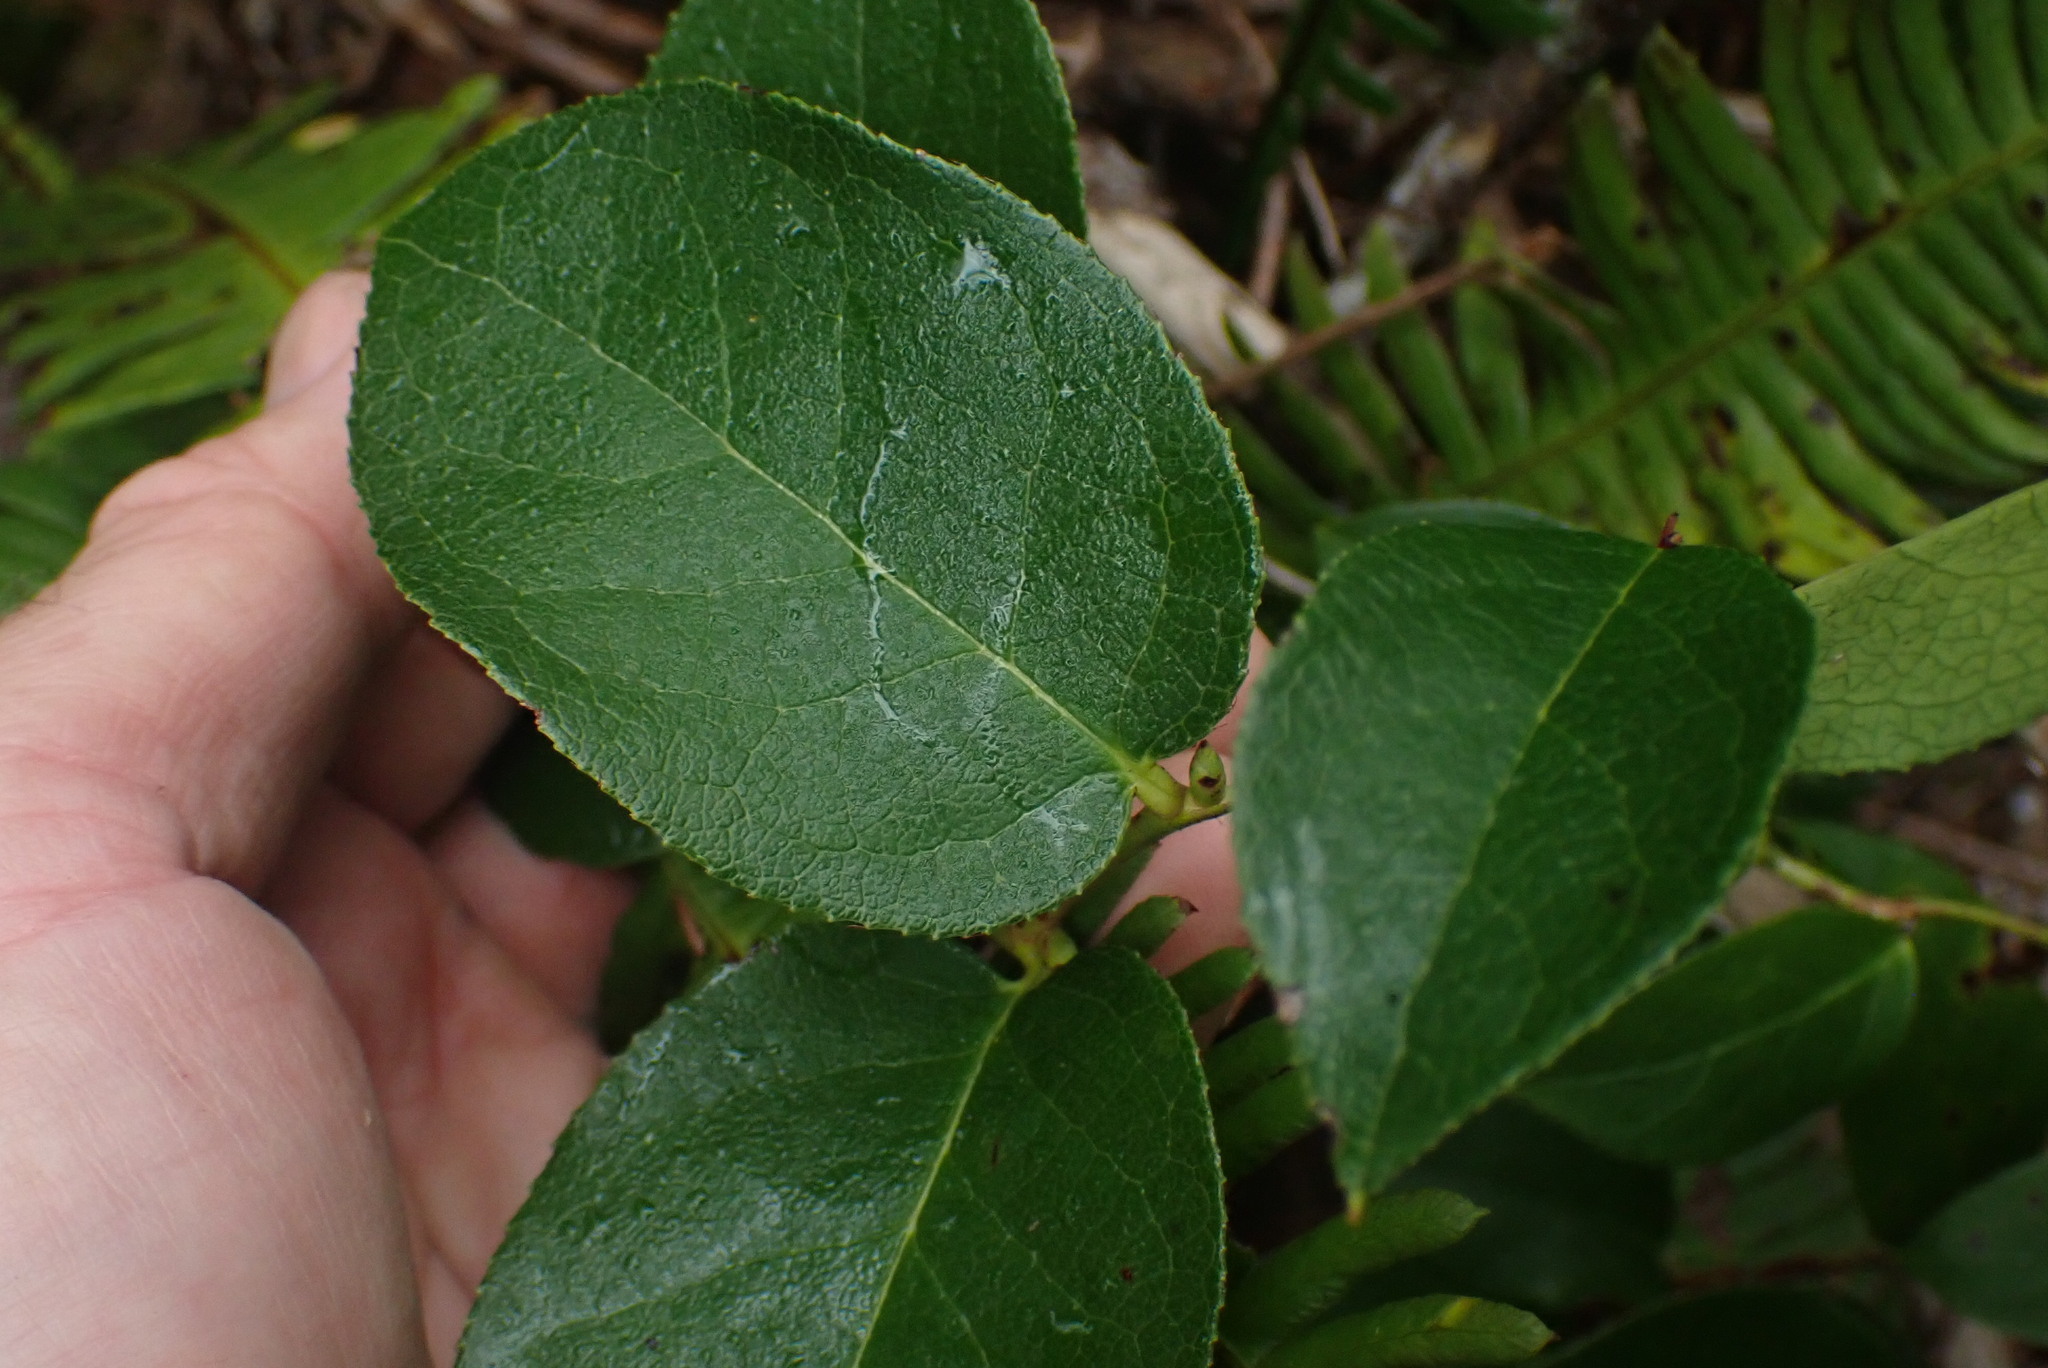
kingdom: Plantae
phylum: Tracheophyta
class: Magnoliopsida
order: Ericales
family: Ericaceae
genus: Gaultheria
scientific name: Gaultheria shallon
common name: Shallon
